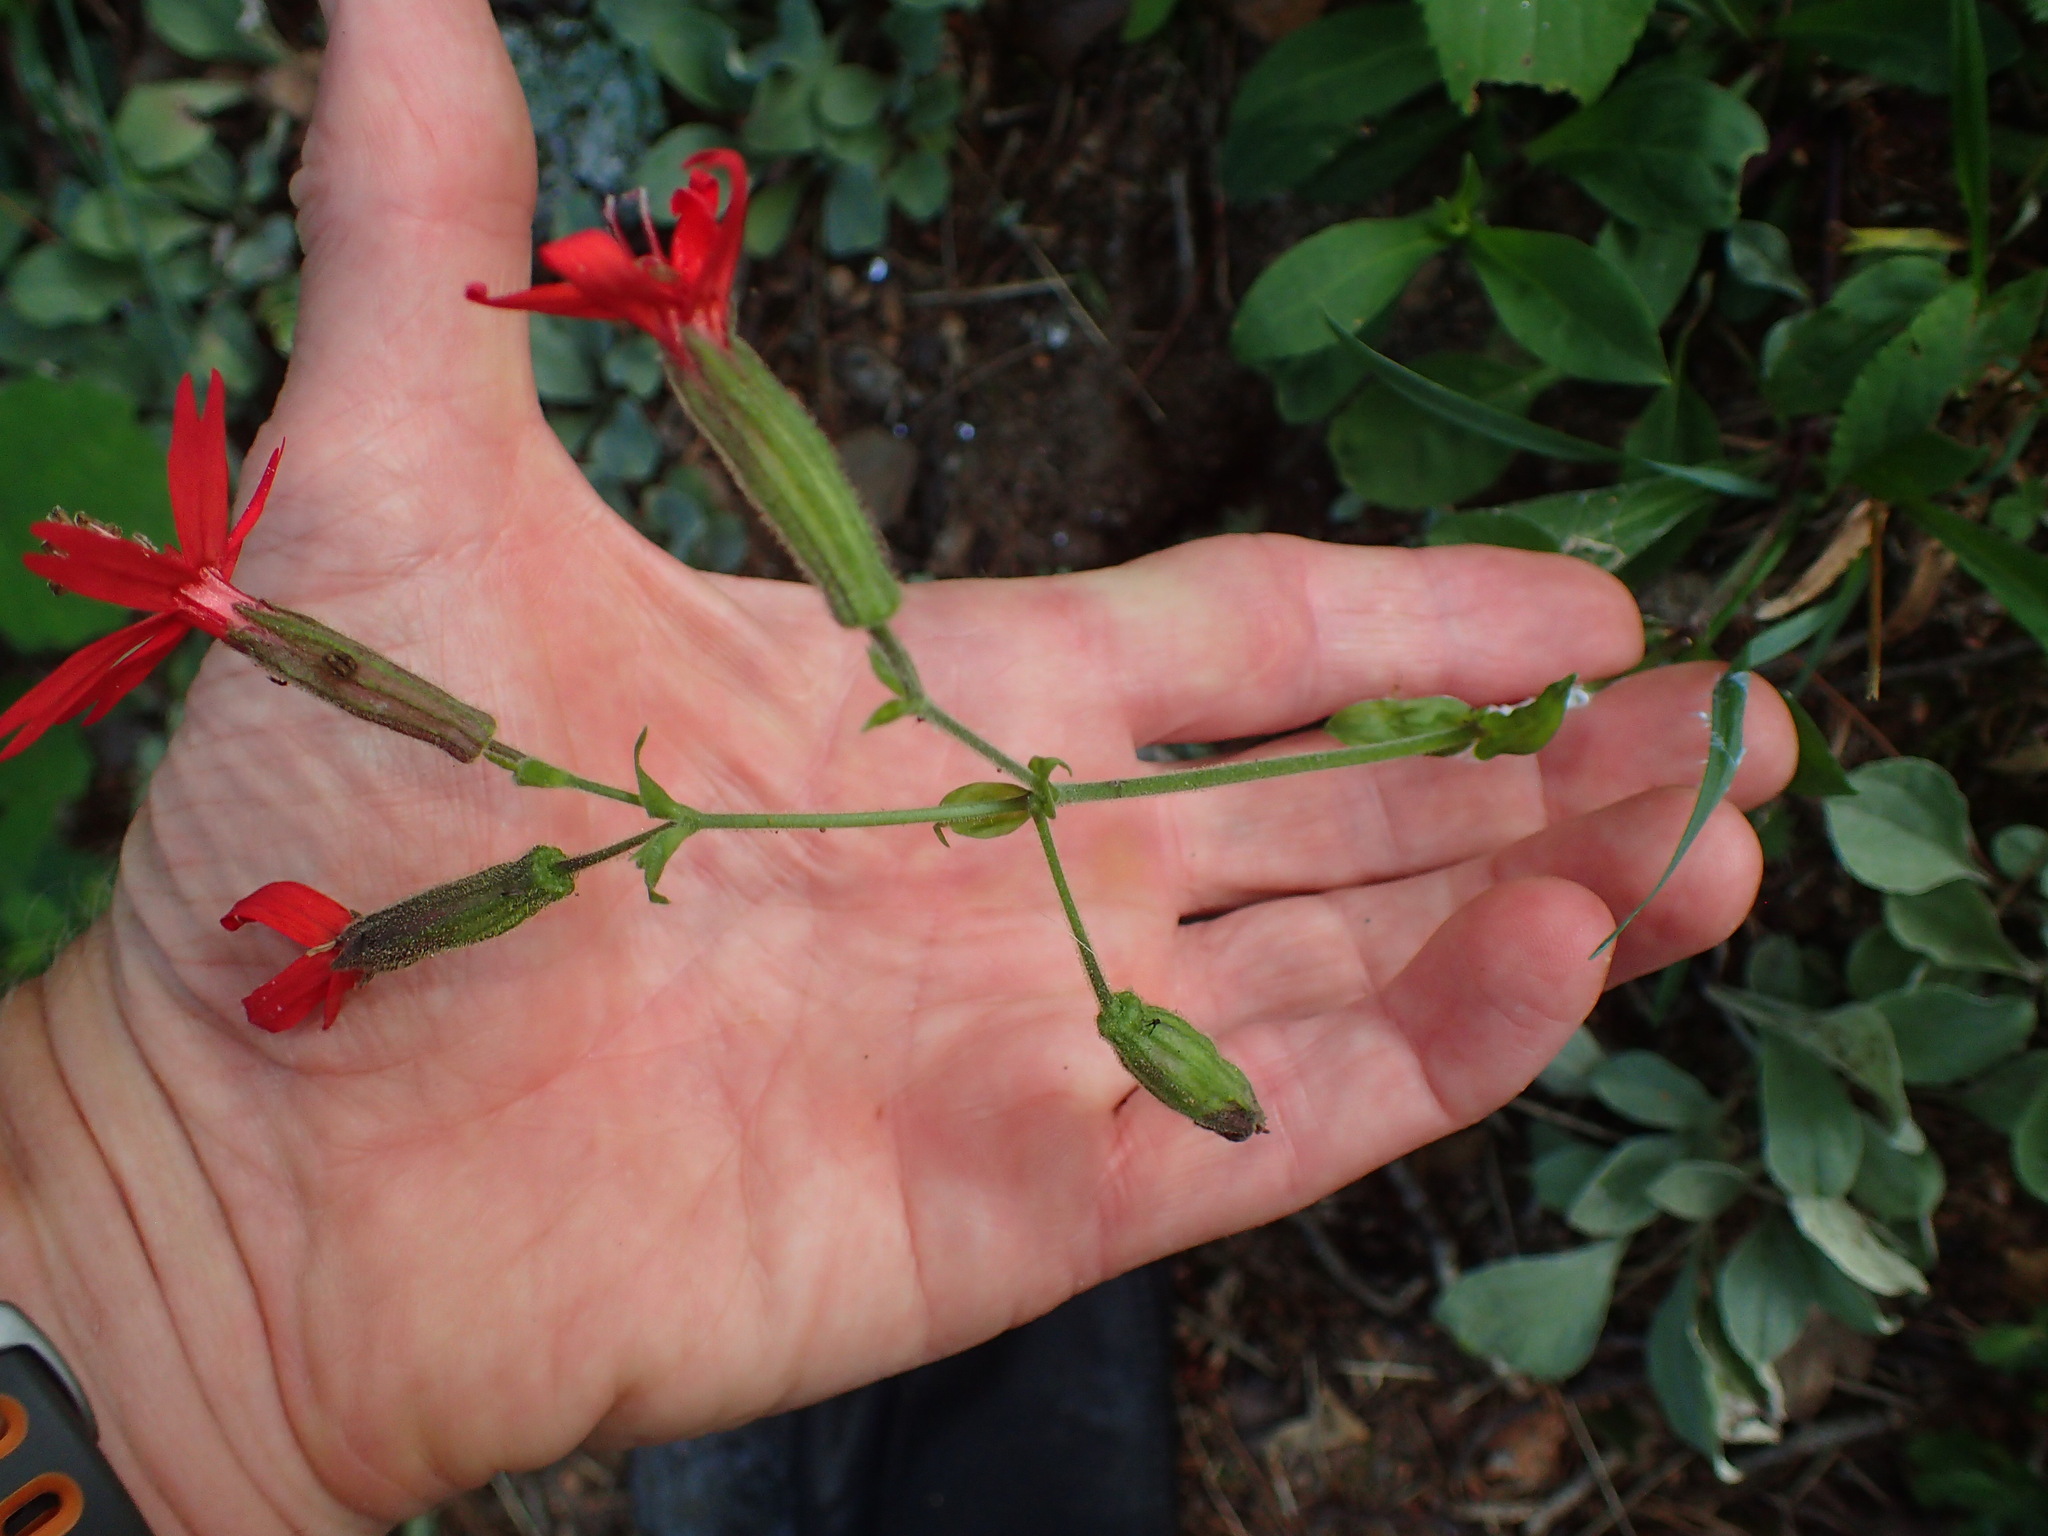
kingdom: Plantae
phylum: Tracheophyta
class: Magnoliopsida
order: Caryophyllales
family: Caryophyllaceae
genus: Silene
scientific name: Silene virginica
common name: Fire-pink
